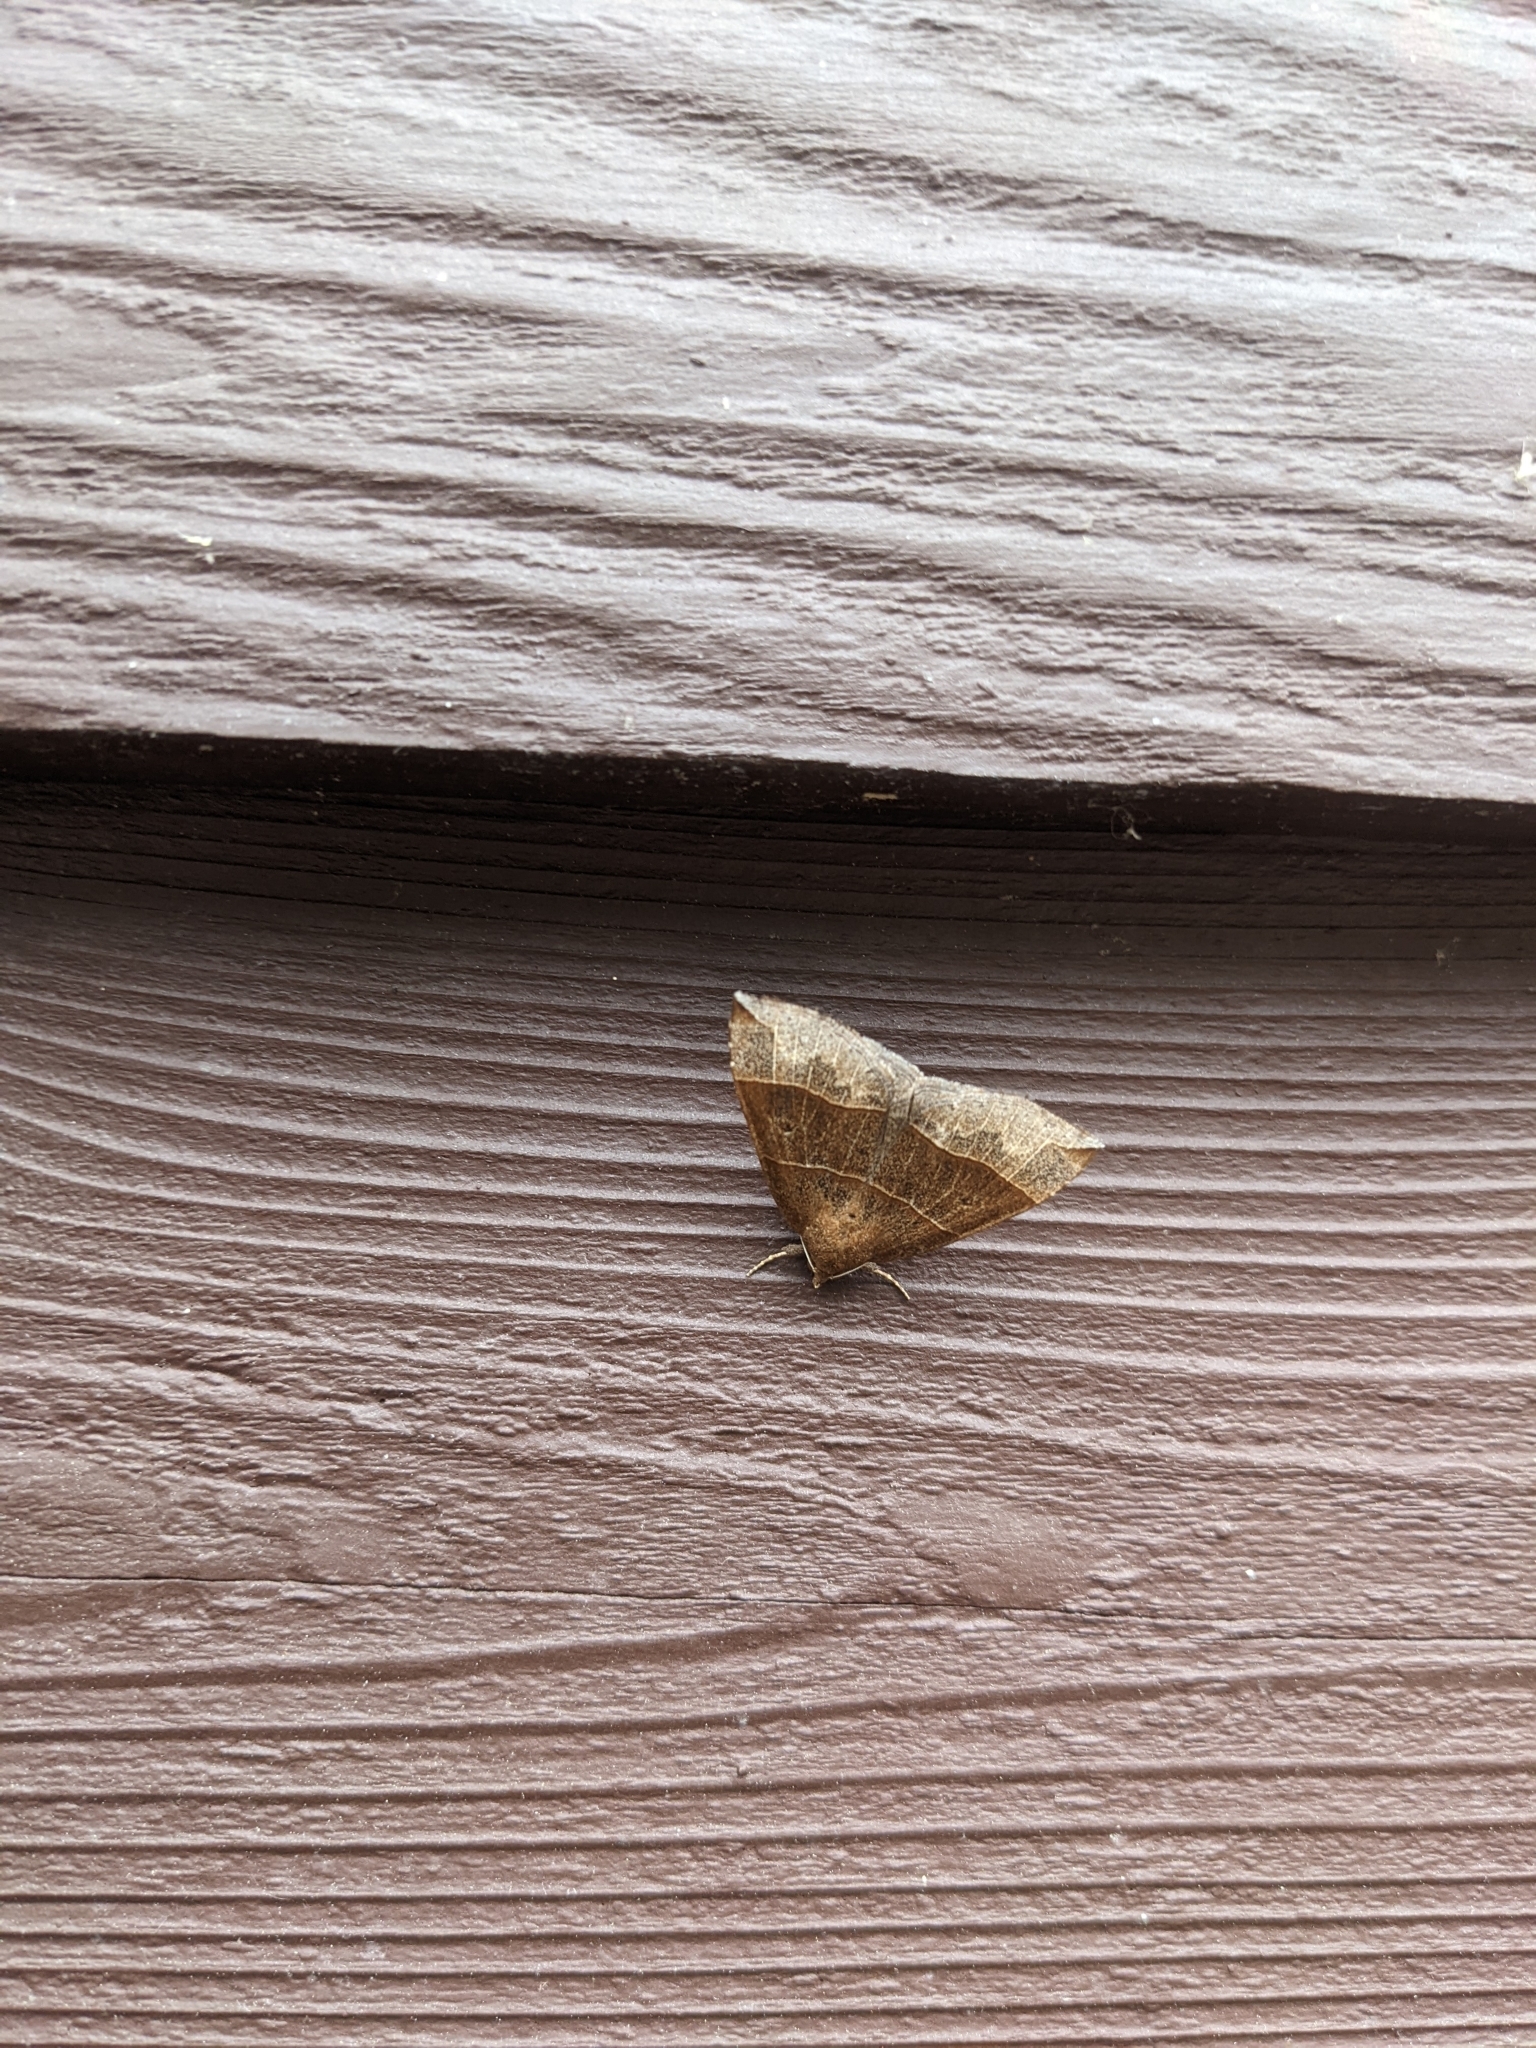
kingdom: Animalia
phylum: Arthropoda
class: Insecta
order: Lepidoptera
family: Erebidae
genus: Parallelia
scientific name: Parallelia bistriaris
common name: Maple looper moth
